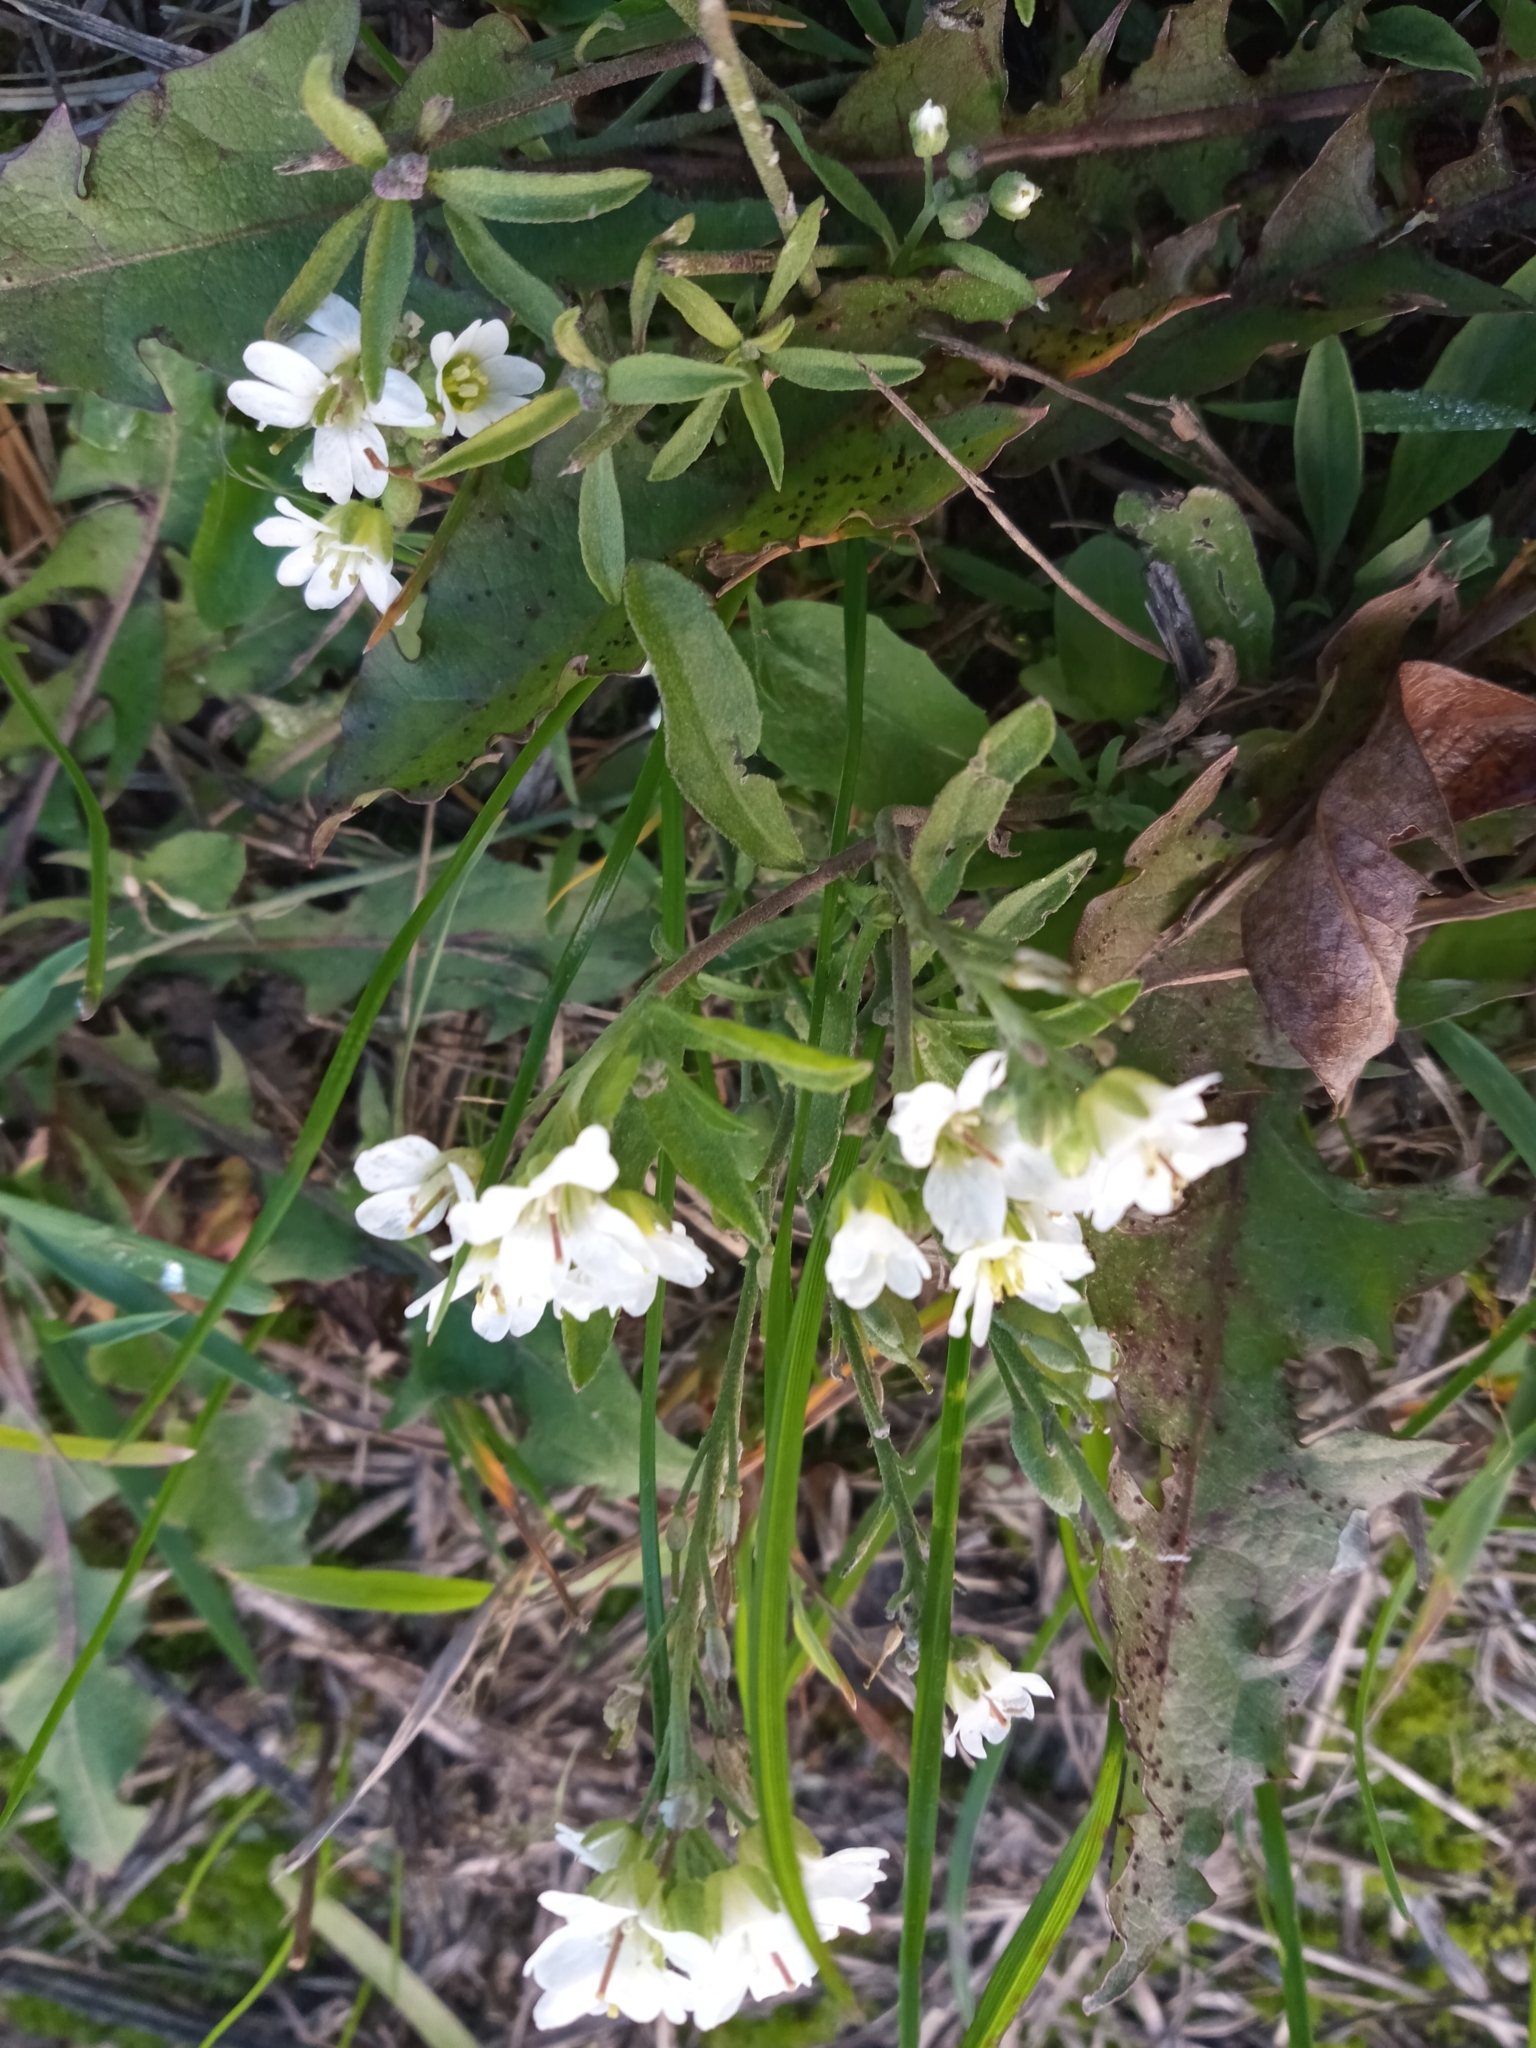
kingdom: Plantae
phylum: Tracheophyta
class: Magnoliopsida
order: Brassicales
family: Brassicaceae
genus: Berteroa
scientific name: Berteroa incana
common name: Hoary alison
